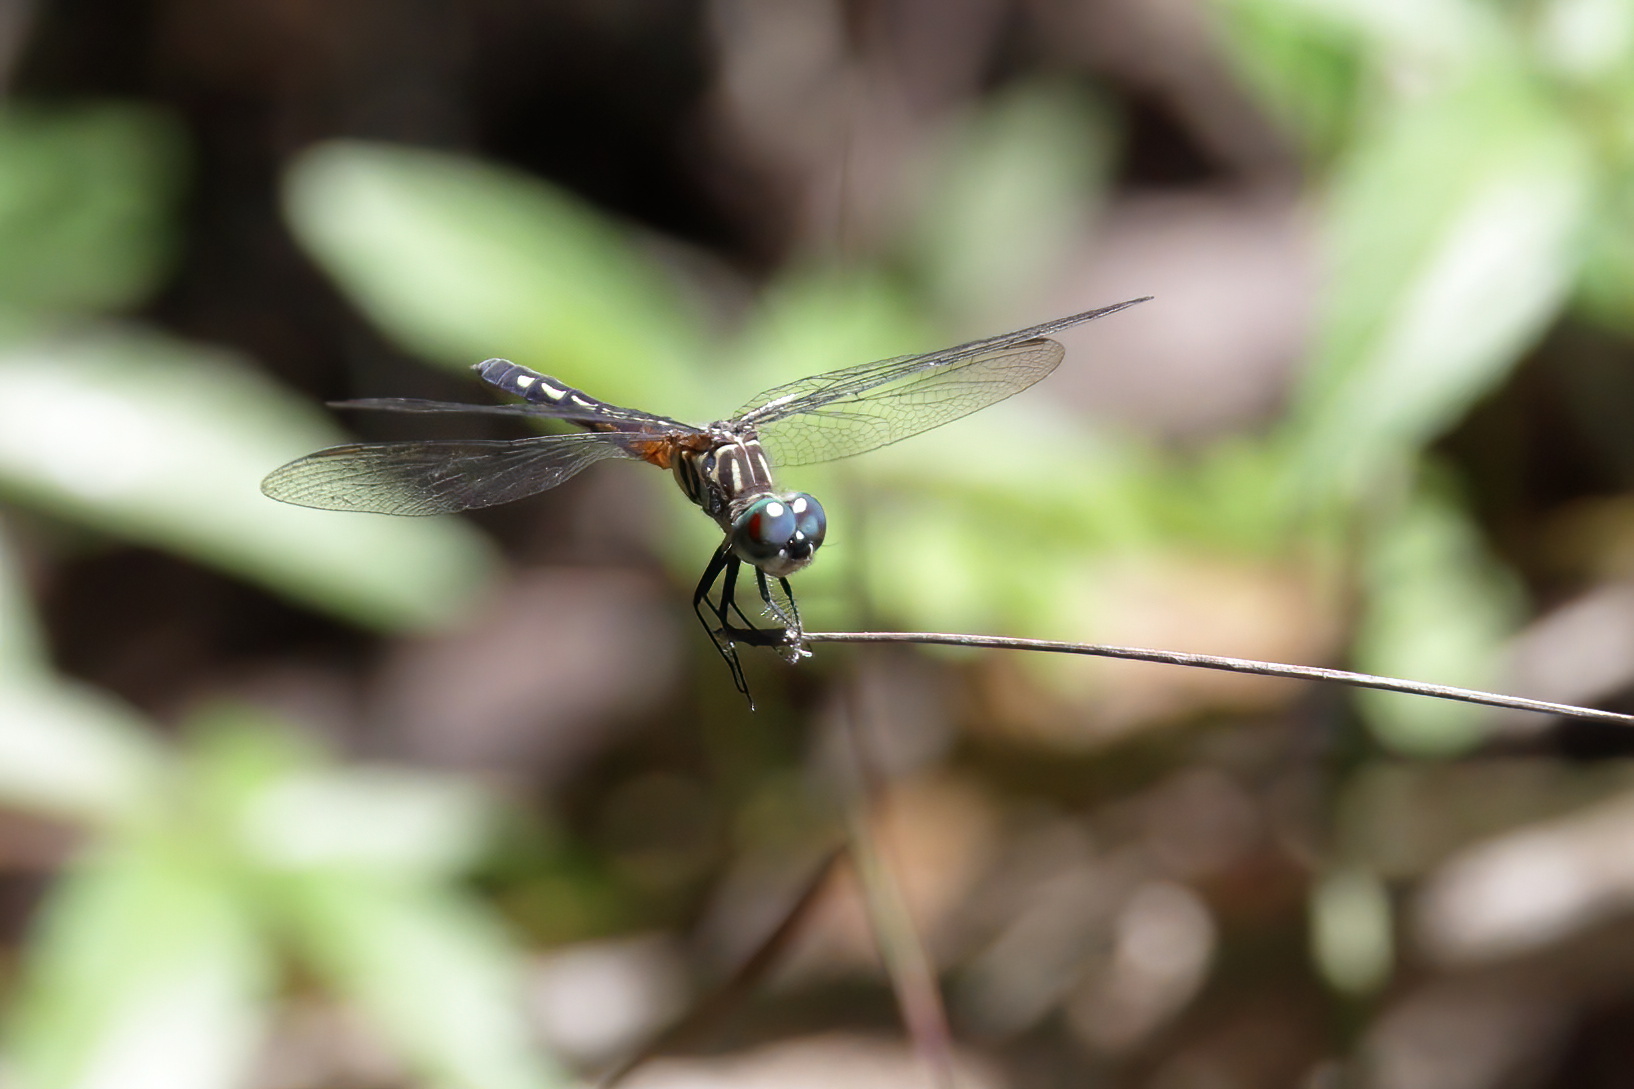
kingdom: Animalia
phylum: Arthropoda
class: Insecta
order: Odonata
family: Libellulidae
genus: Pachydiplax
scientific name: Pachydiplax longipennis
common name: Blue dasher
